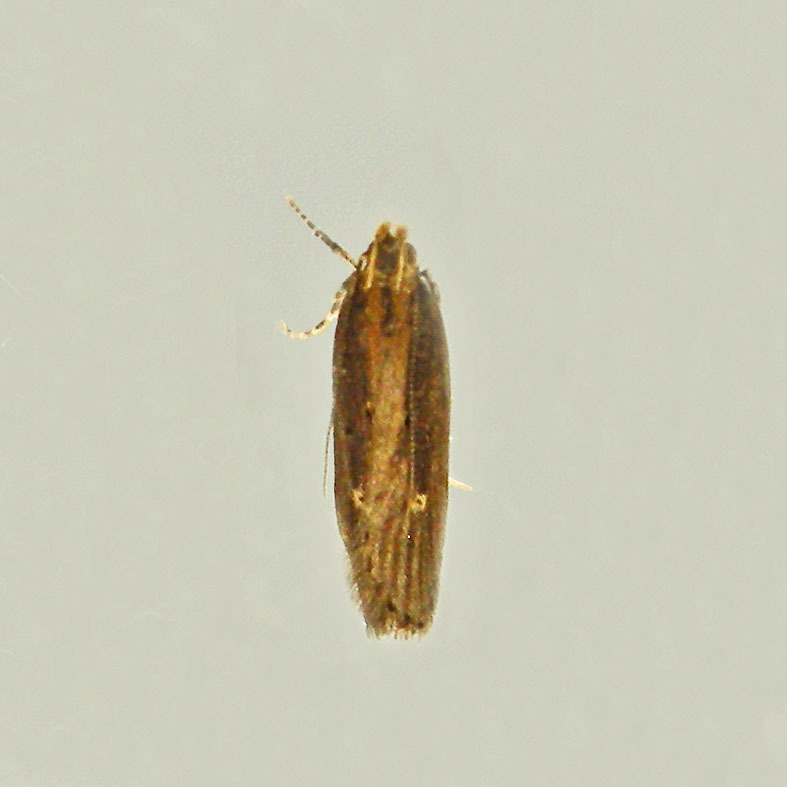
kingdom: Animalia
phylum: Arthropoda
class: Insecta
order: Lepidoptera
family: Gelechiidae
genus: Chionodes
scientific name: Chionodes discoocellella
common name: Eye-ringed chionodes moth
